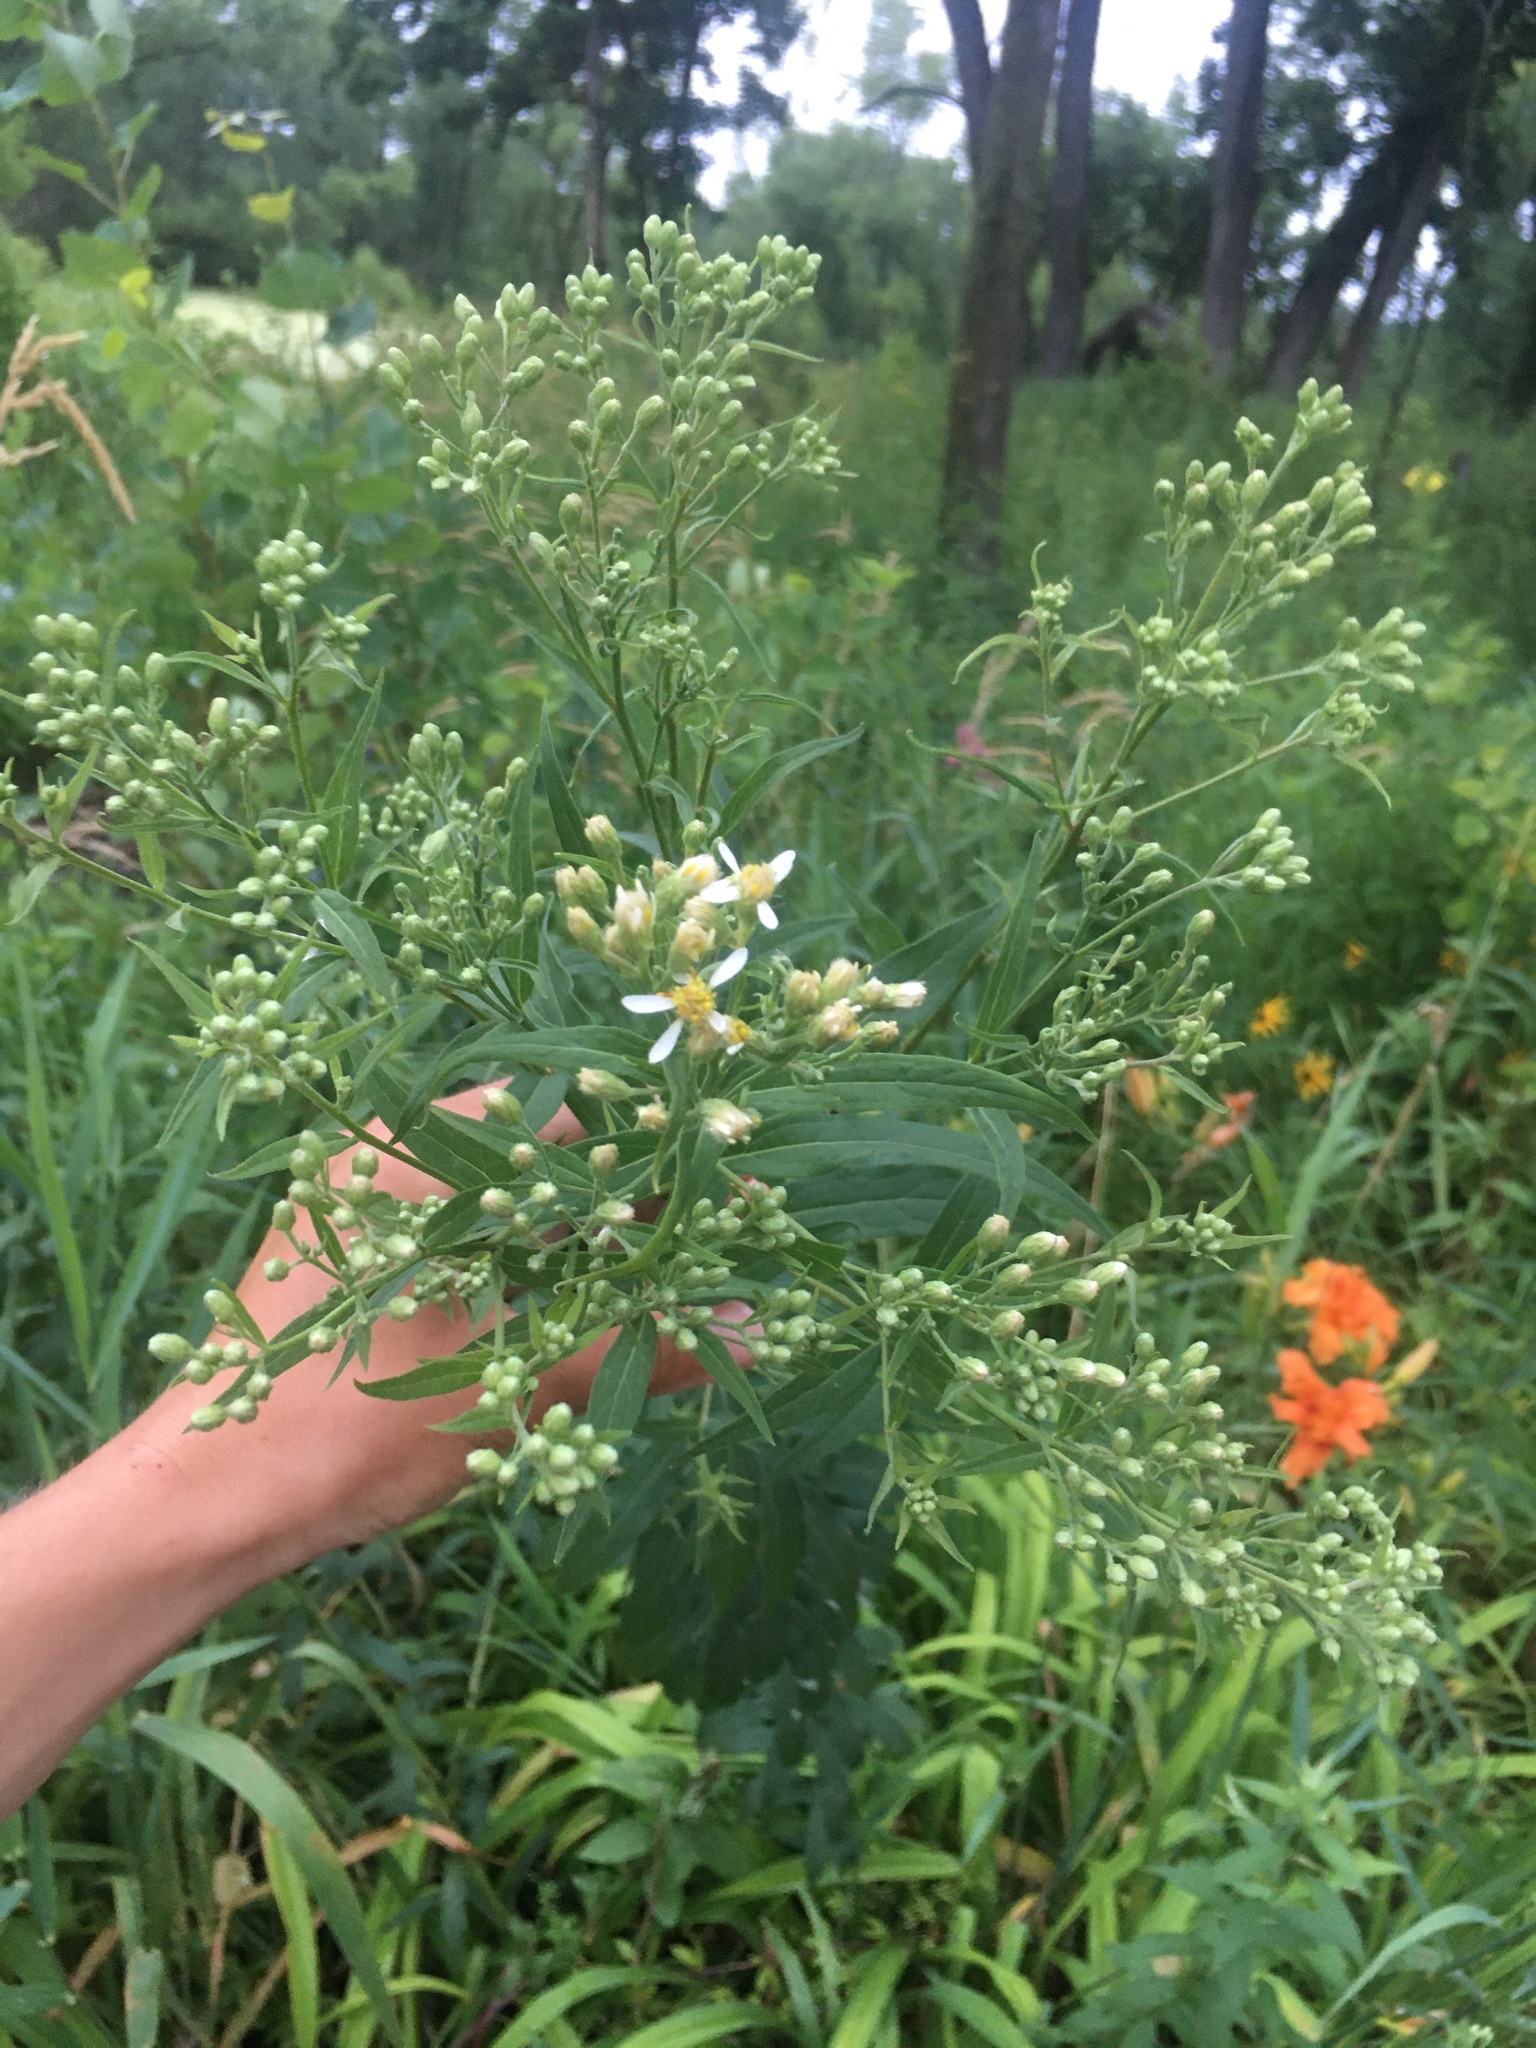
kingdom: Plantae
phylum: Tracheophyta
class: Magnoliopsida
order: Asterales
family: Asteraceae
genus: Doellingeria
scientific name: Doellingeria umbellata
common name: Flat-top white aster
